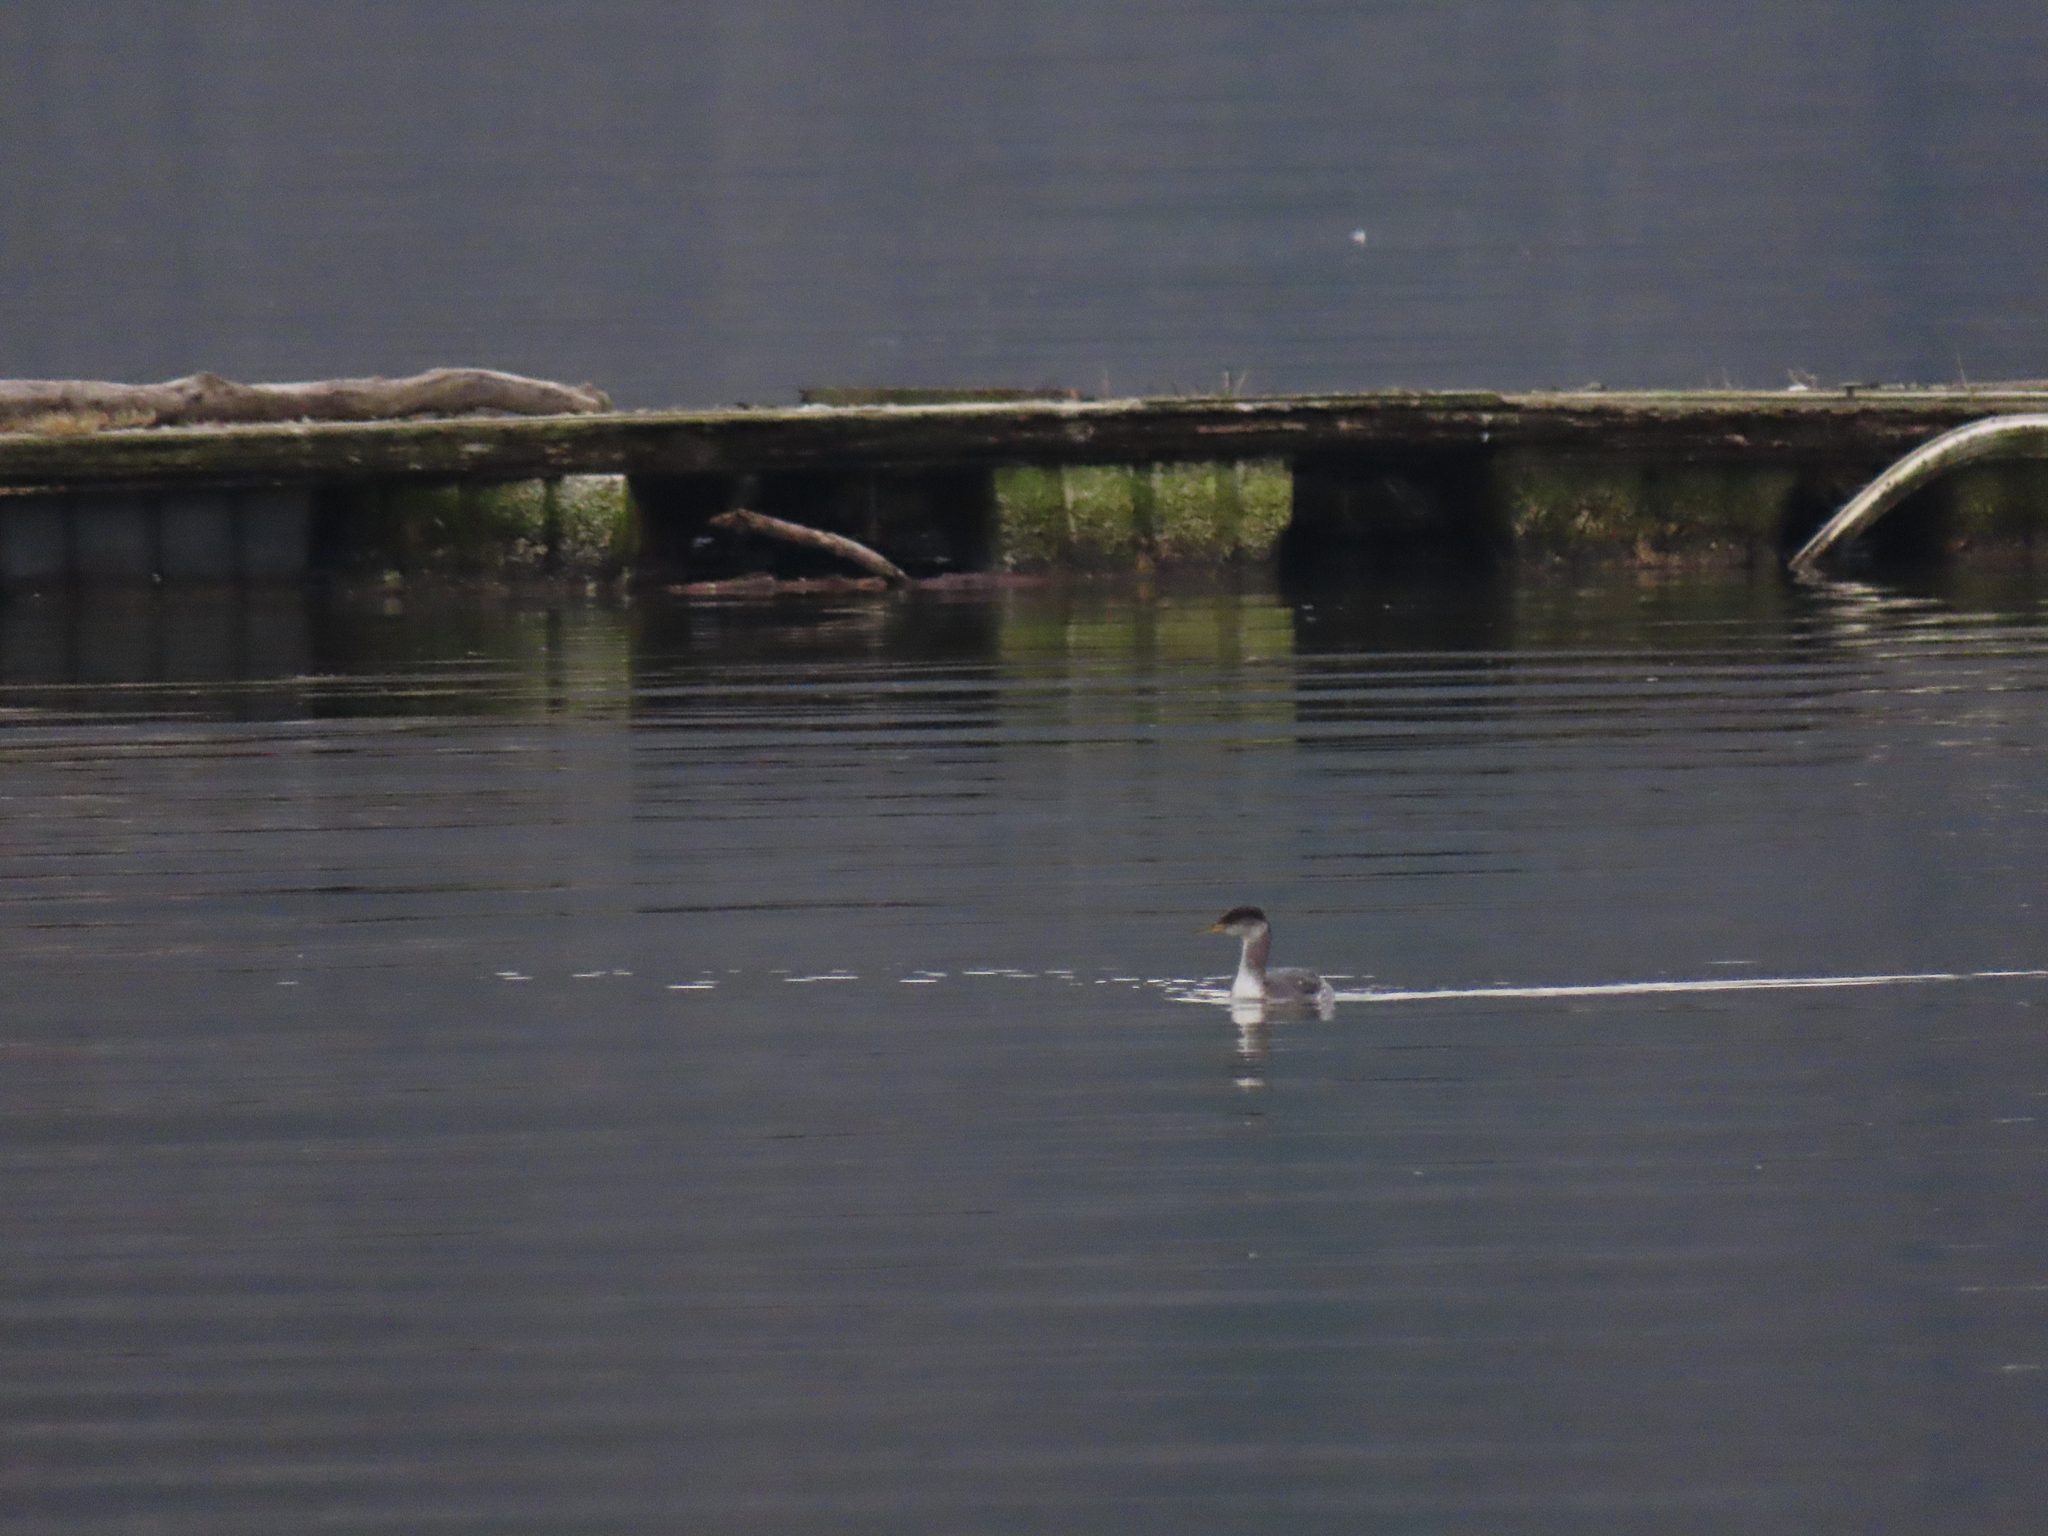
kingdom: Animalia
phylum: Chordata
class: Aves
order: Podicipediformes
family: Podicipedidae
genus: Podiceps
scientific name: Podiceps grisegena
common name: Red-necked grebe
